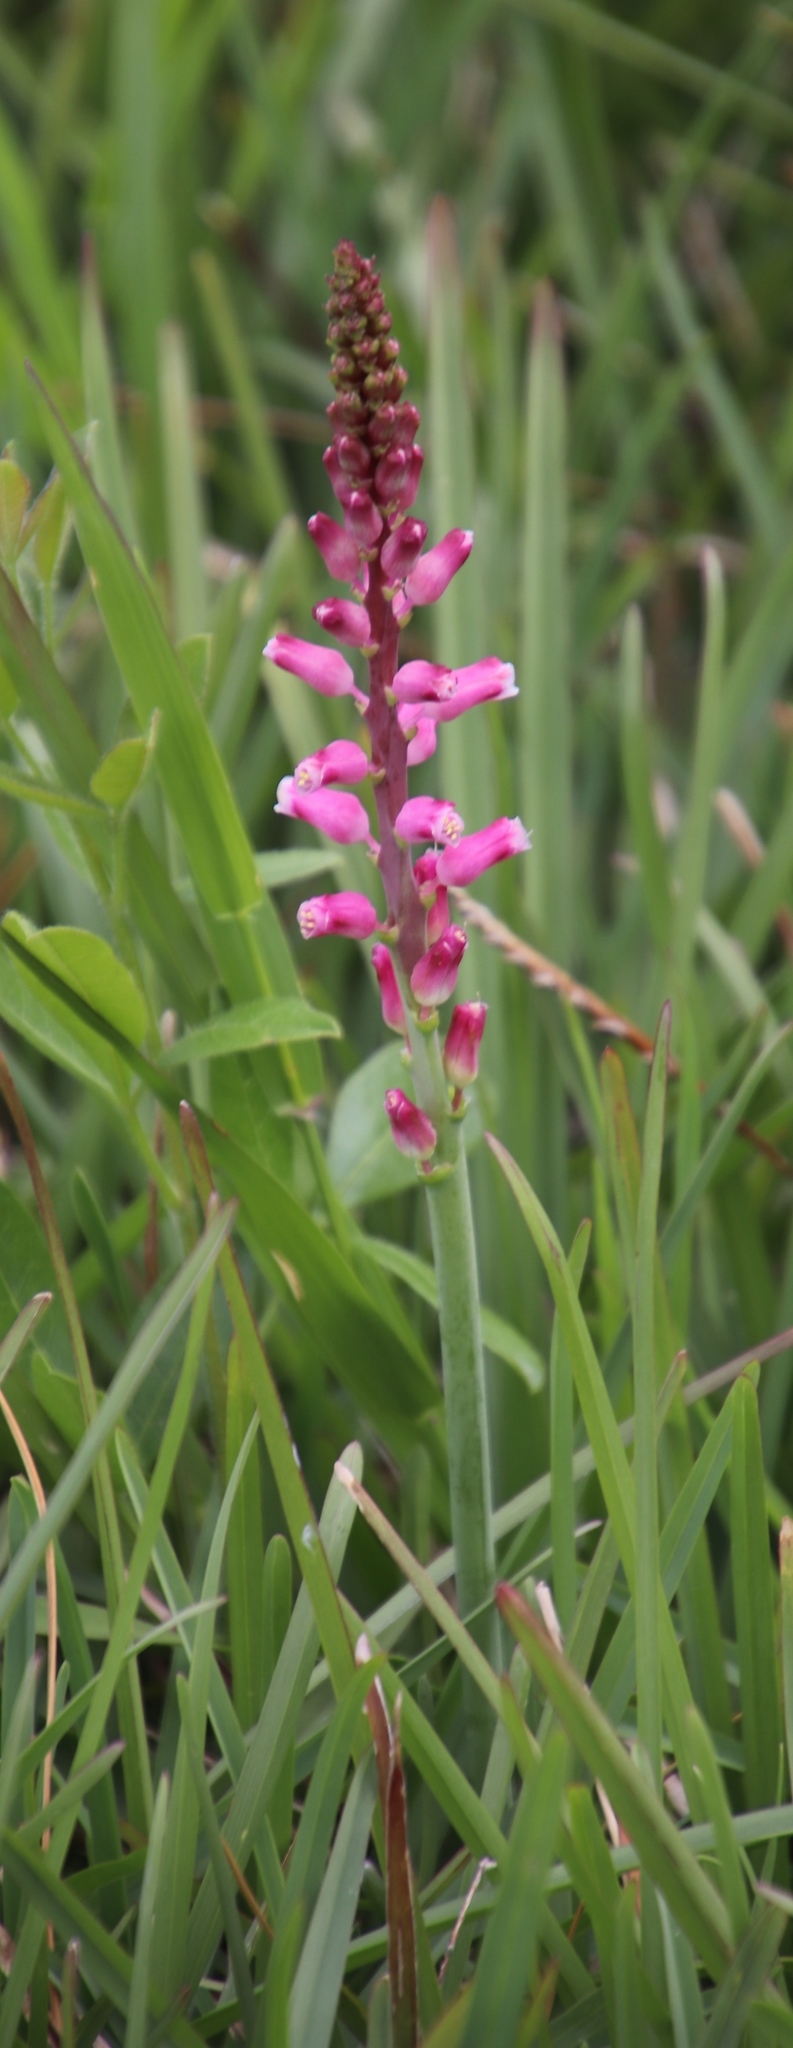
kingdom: Plantae
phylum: Tracheophyta
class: Liliopsida
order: Asparagales
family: Asparagaceae
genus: Lachenalia
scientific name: Lachenalia rosea
